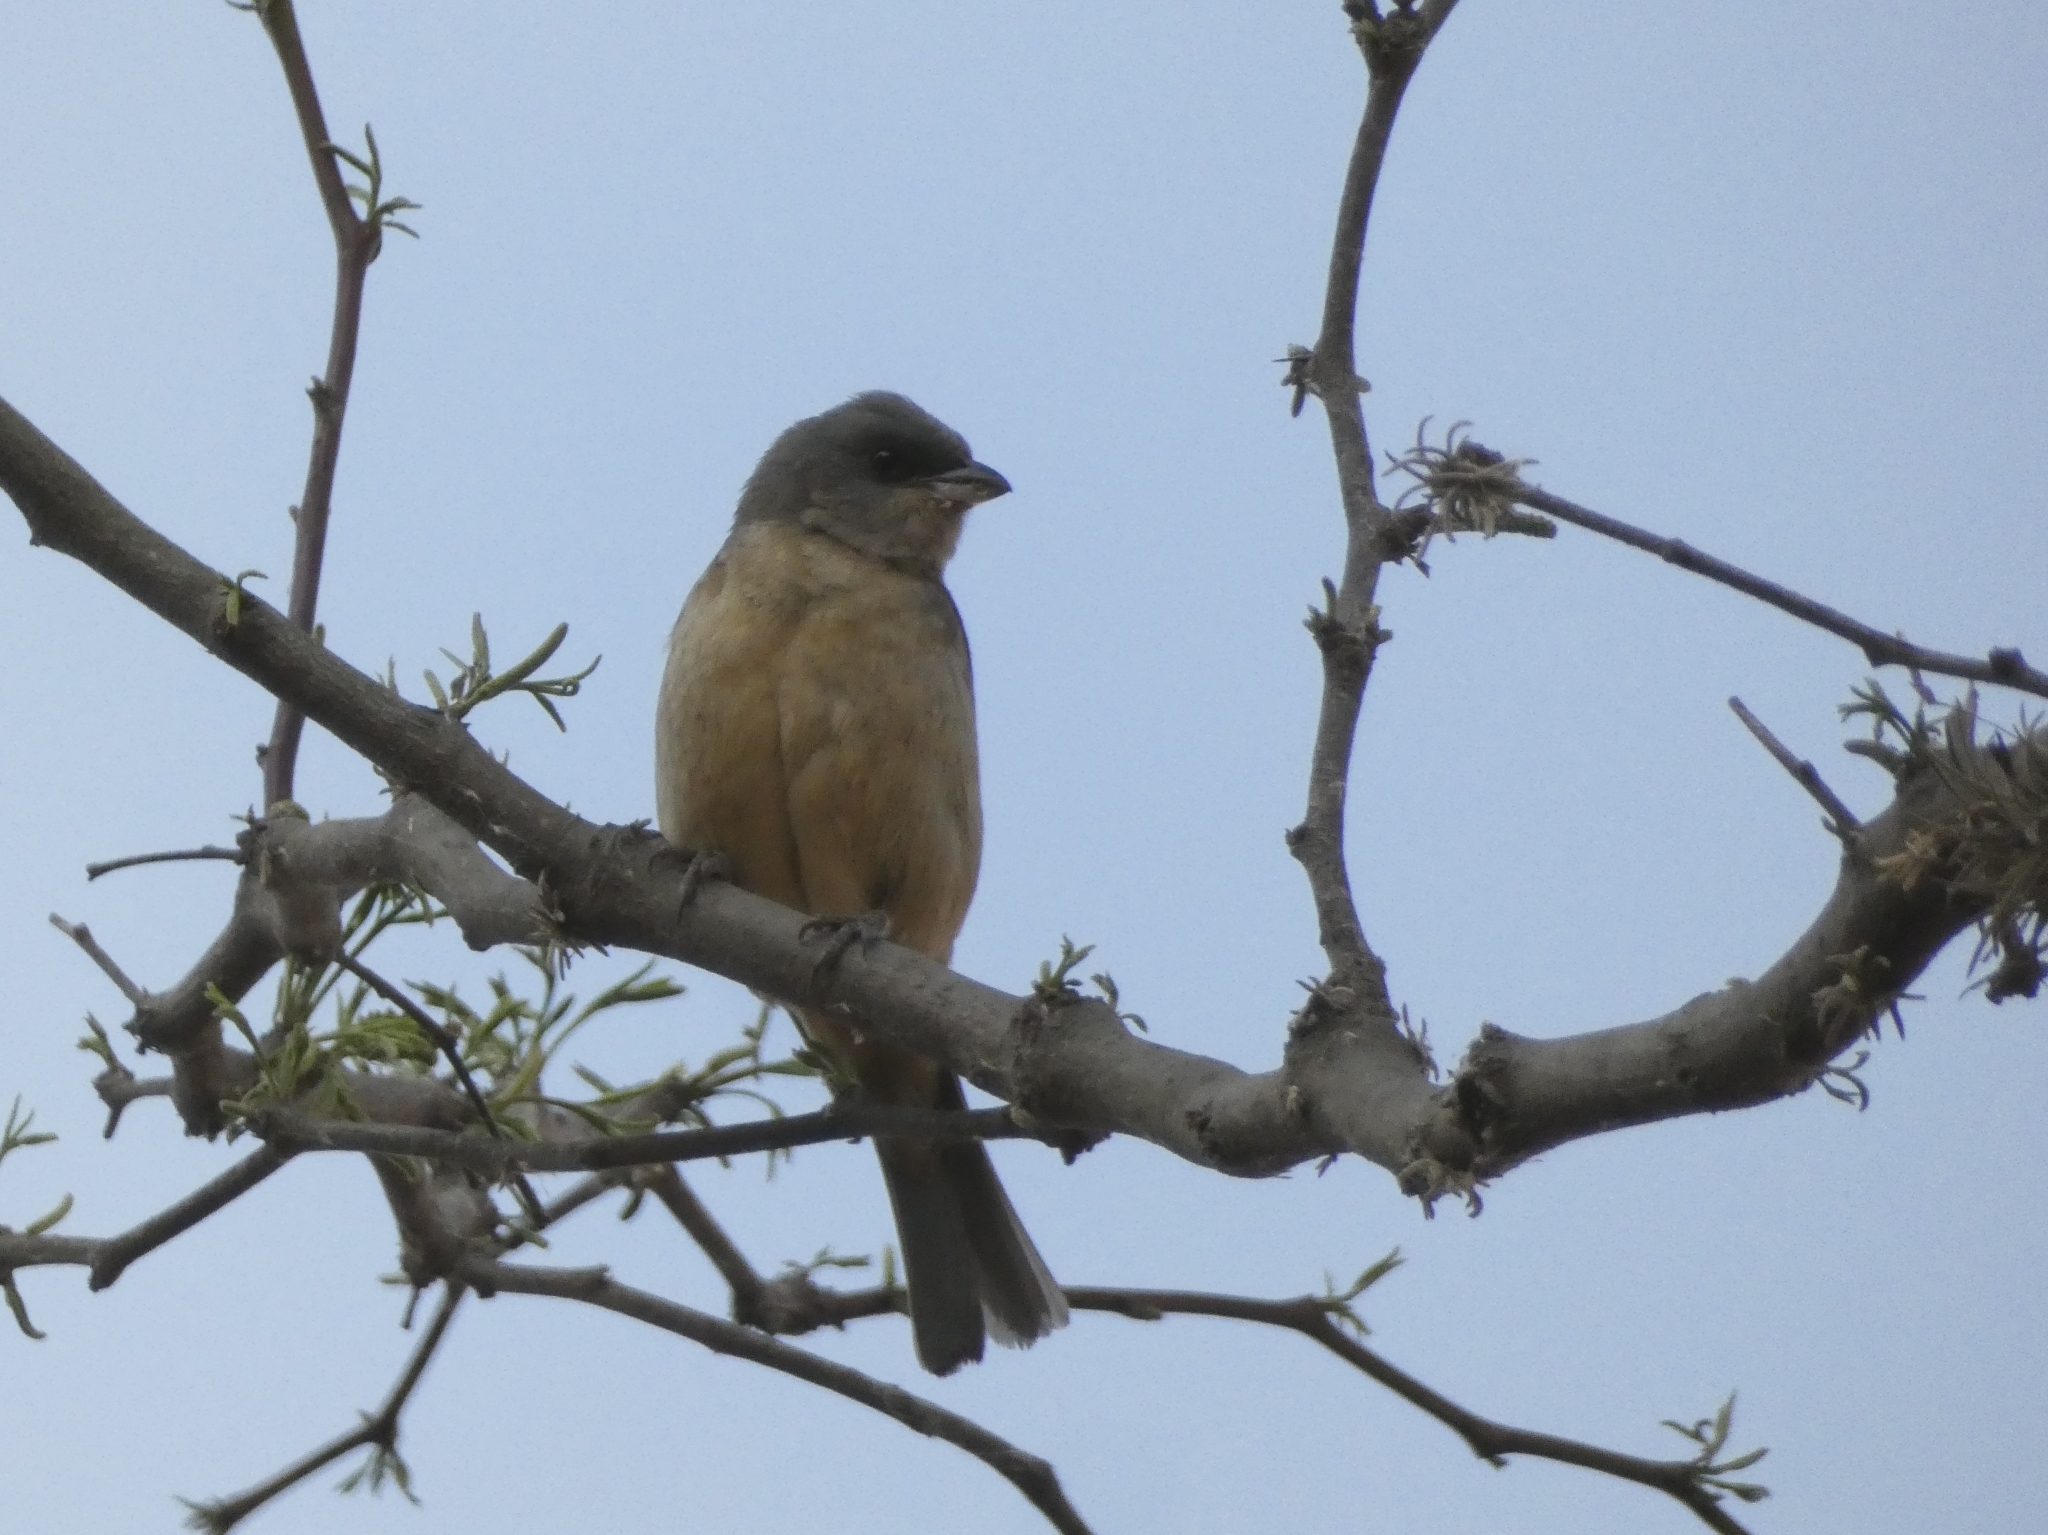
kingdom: Animalia
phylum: Chordata
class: Aves
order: Passeriformes
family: Thraupidae
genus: Rauenia
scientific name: Rauenia bonariensis
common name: Blue-and-yellow tanager
